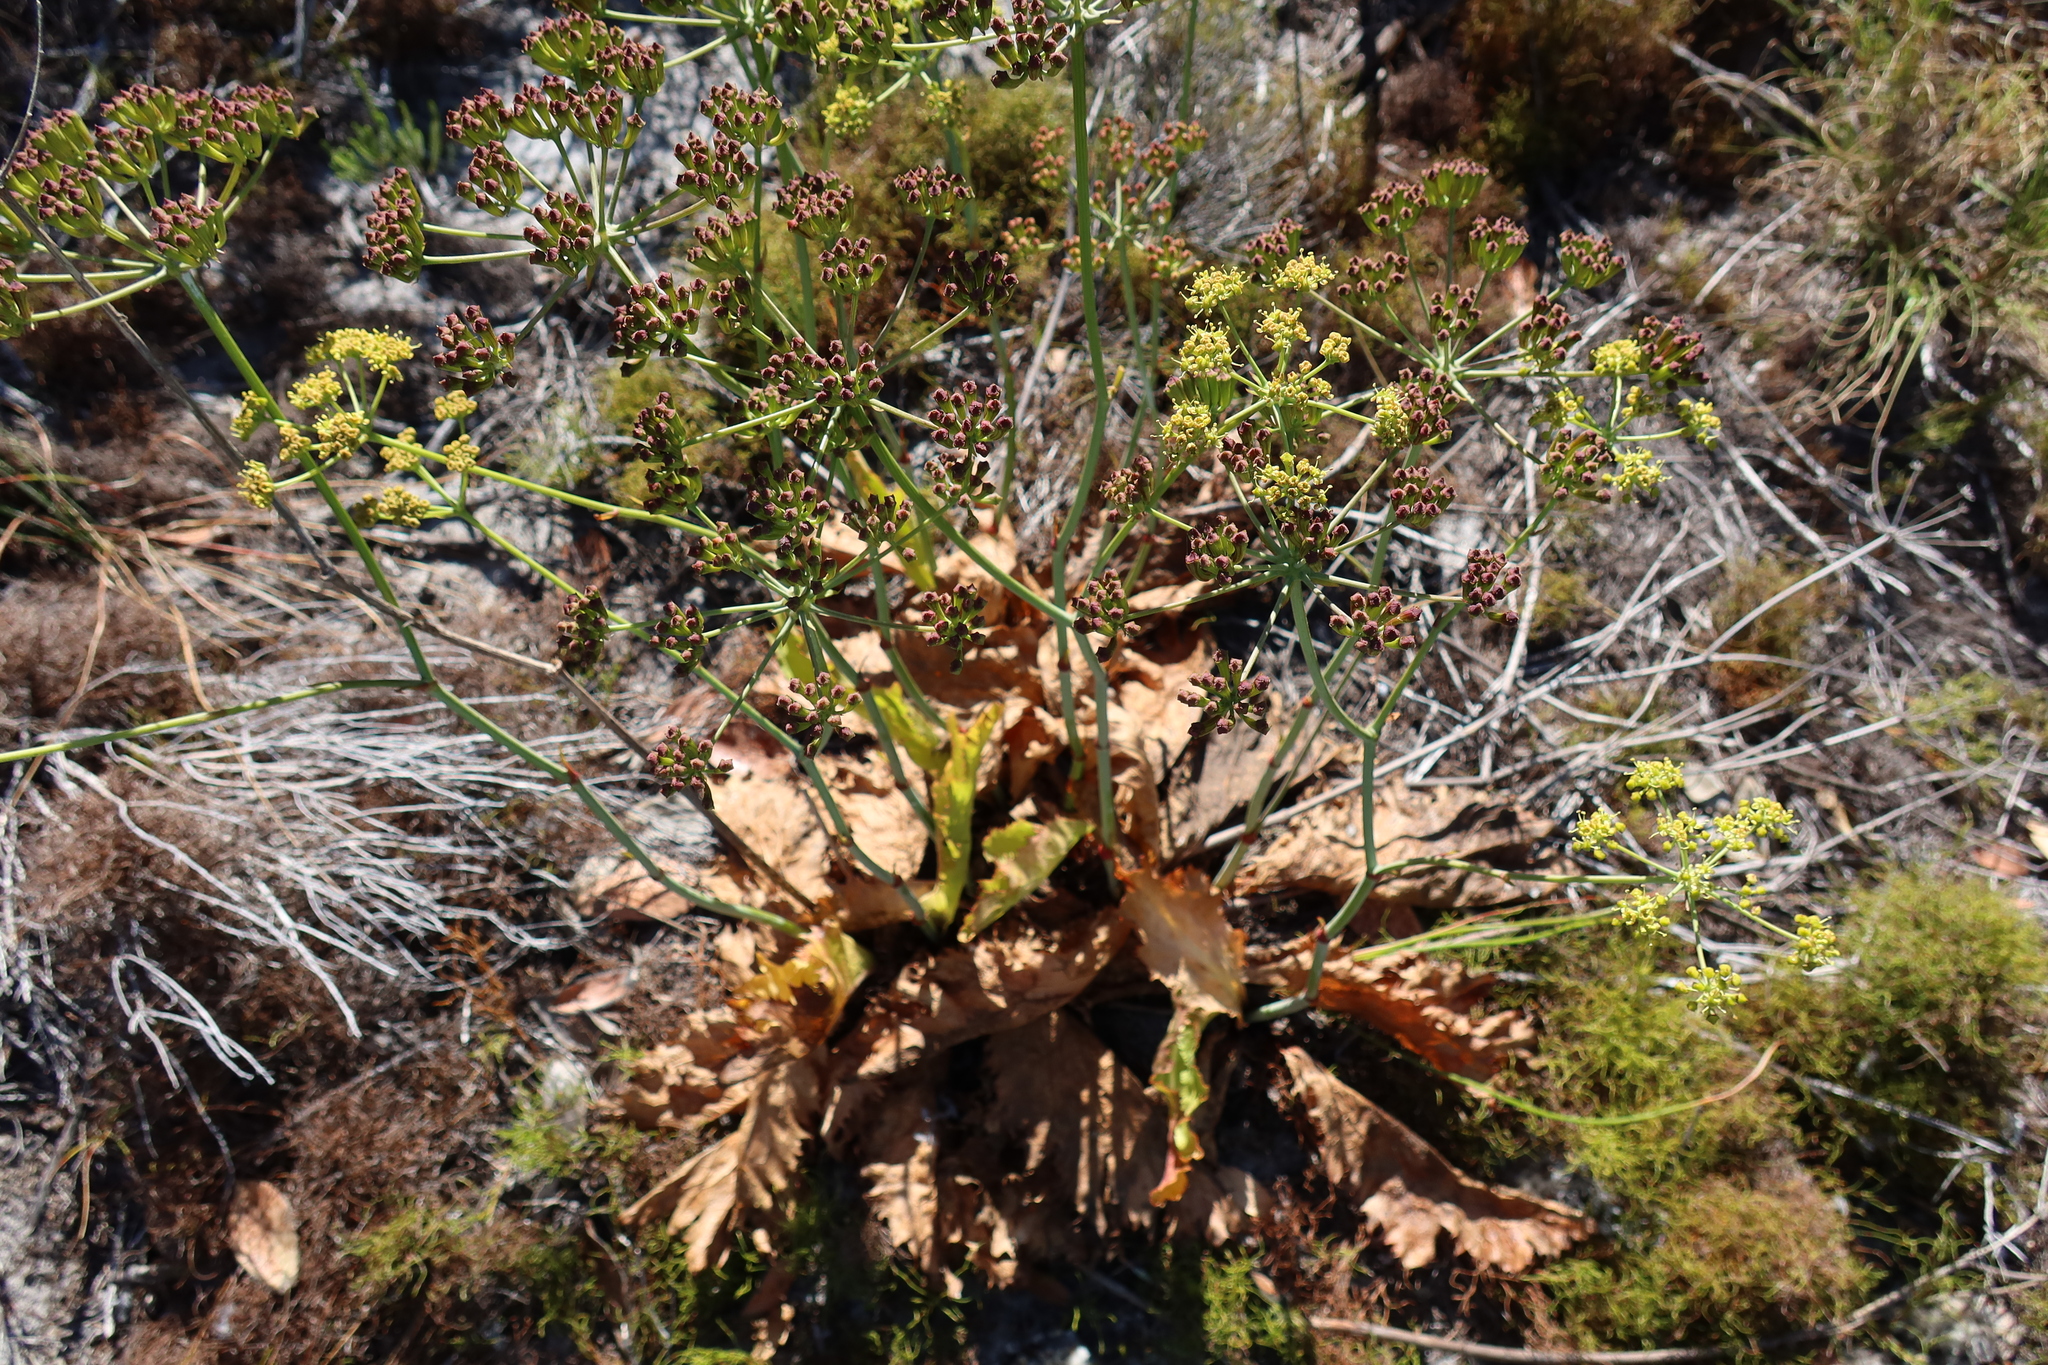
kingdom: Plantae
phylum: Tracheophyta
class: Magnoliopsida
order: Apiales
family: Apiaceae
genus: Lichtensteinia
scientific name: Lichtensteinia lacera
